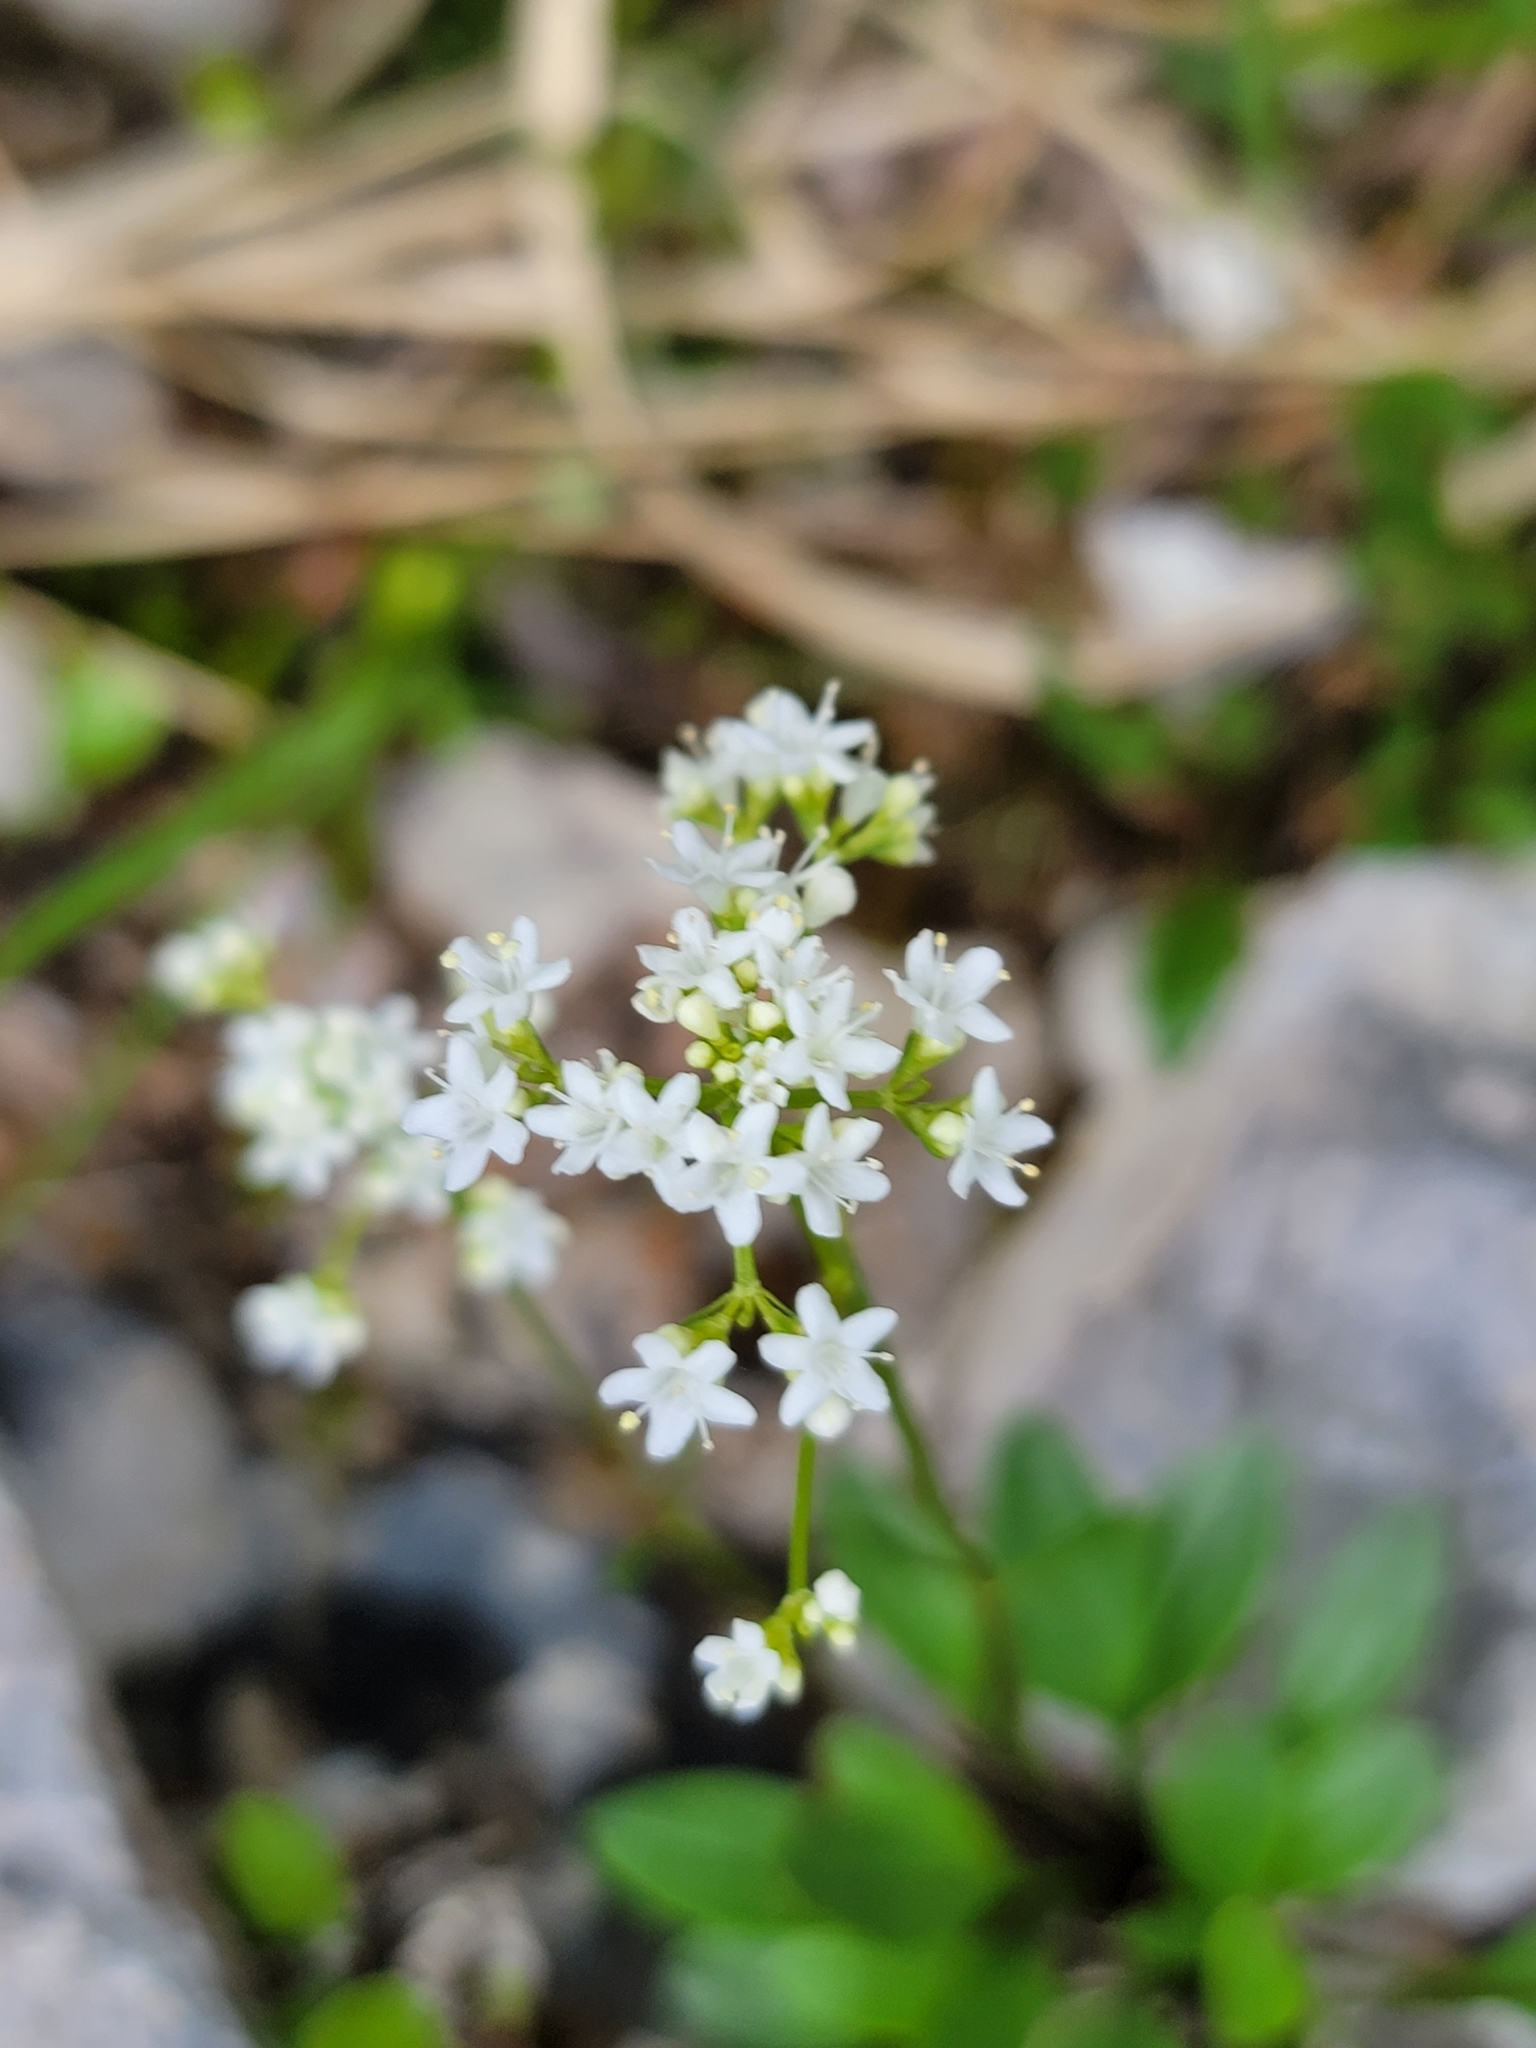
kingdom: Plantae
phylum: Tracheophyta
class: Magnoliopsida
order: Dipsacales
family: Caprifoliaceae
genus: Valeriana
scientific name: Valeriana saxatilis
